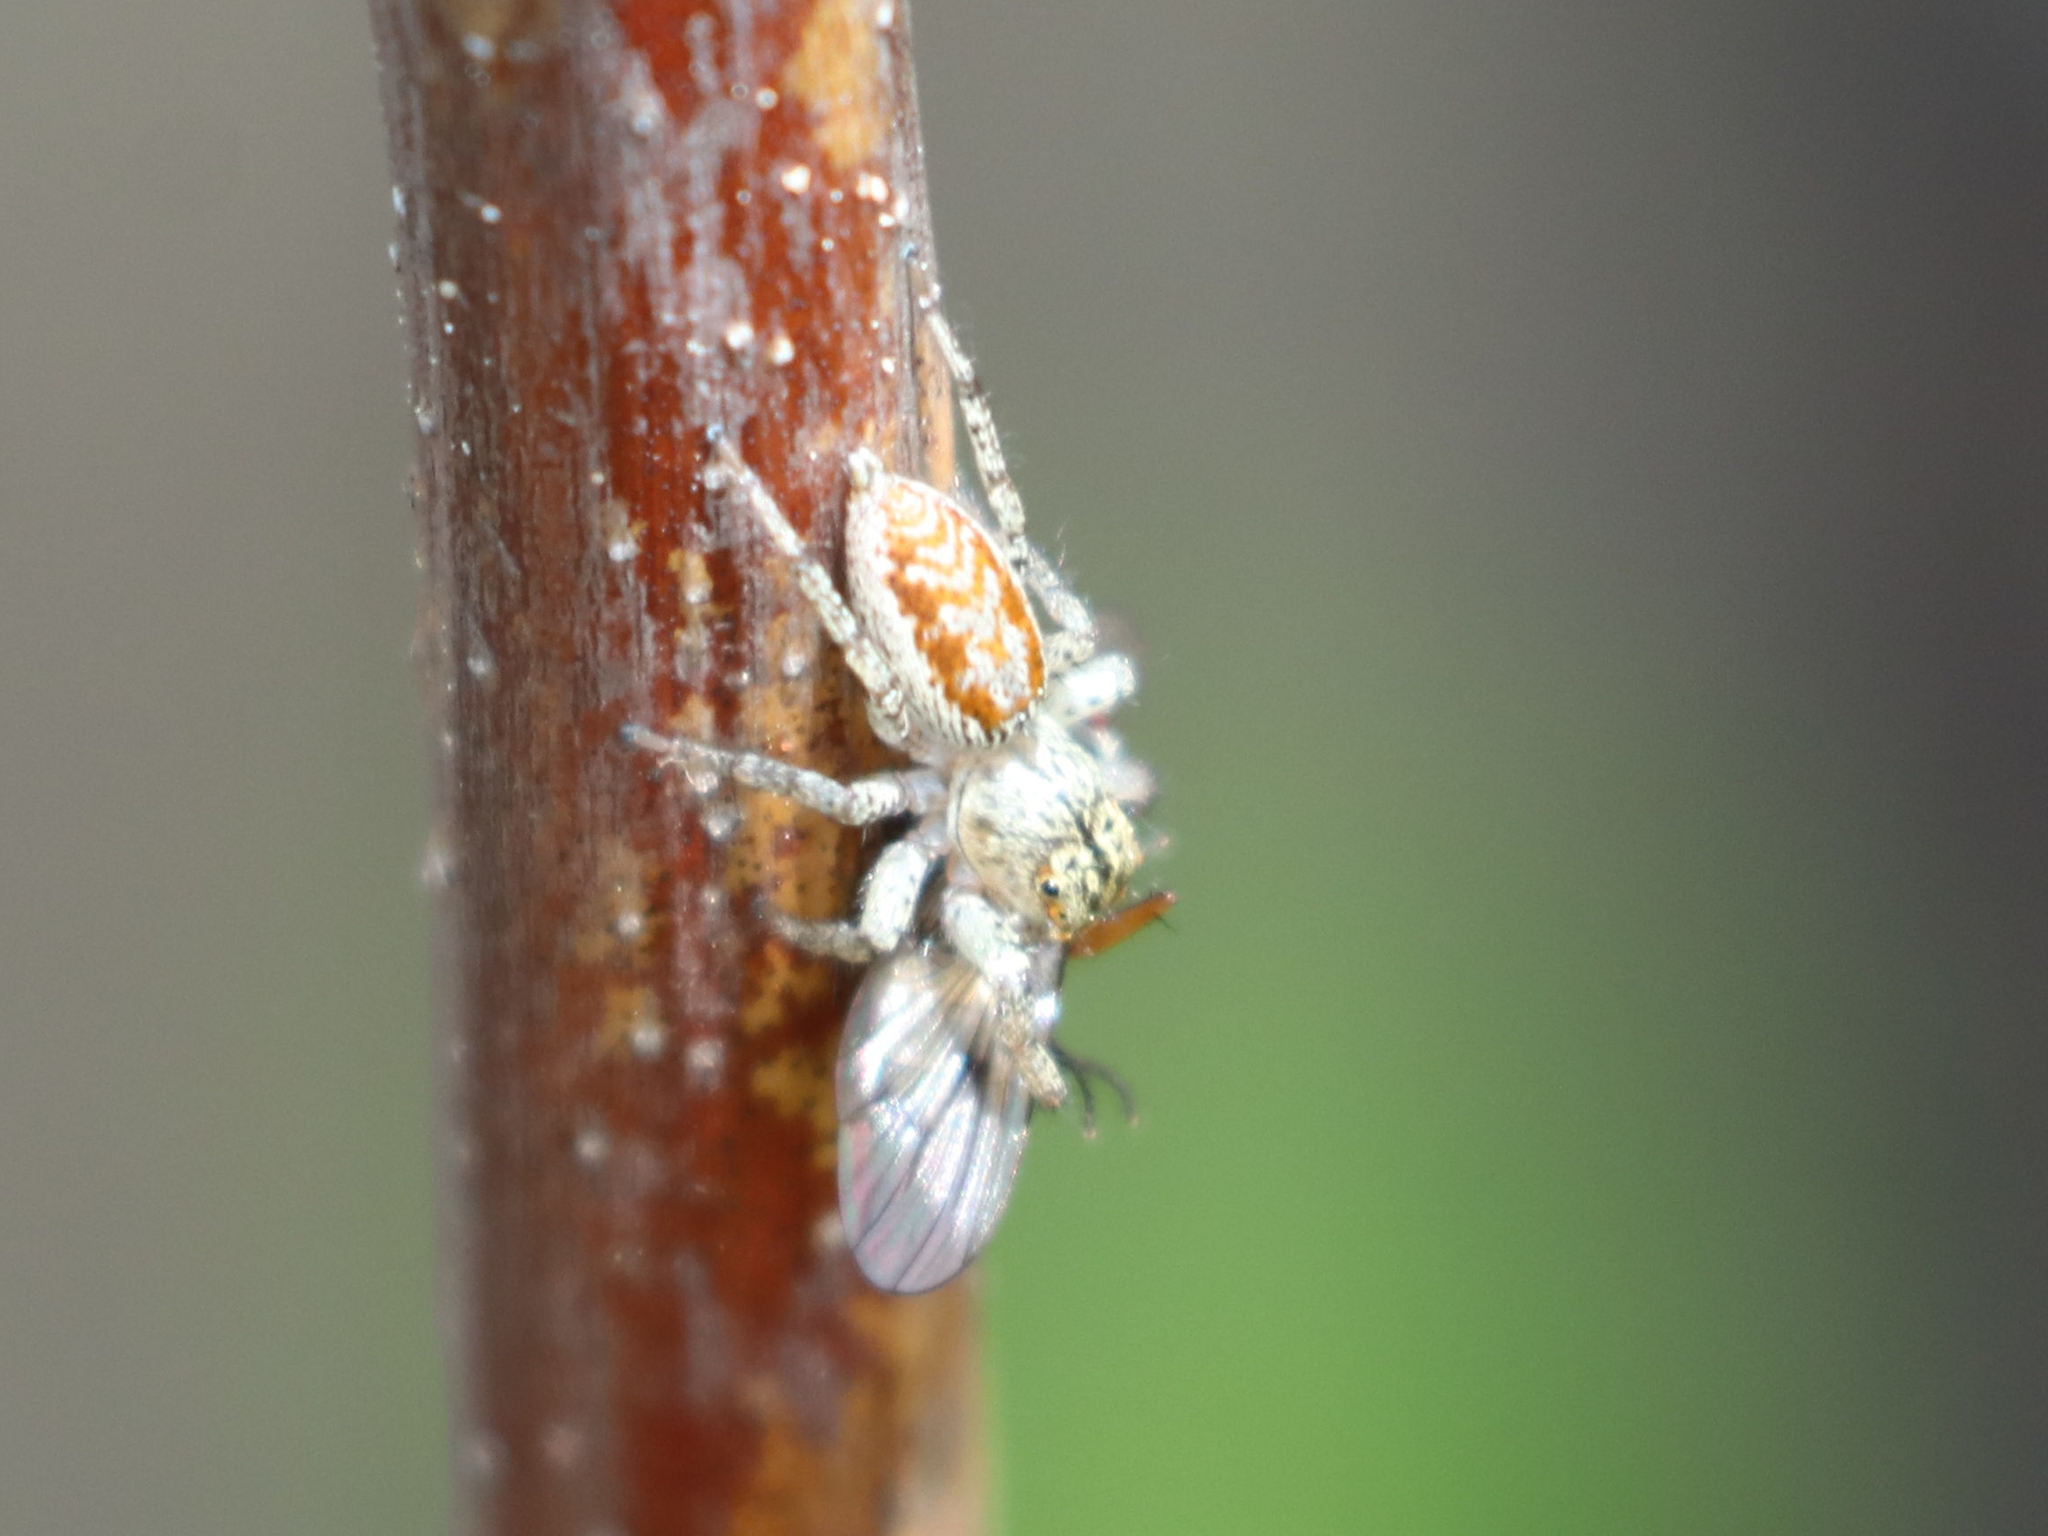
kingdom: Animalia
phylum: Arthropoda
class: Arachnida
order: Araneae
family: Salticidae
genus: Maevia
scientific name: Maevia inclemens
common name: Dimorphic jumper
